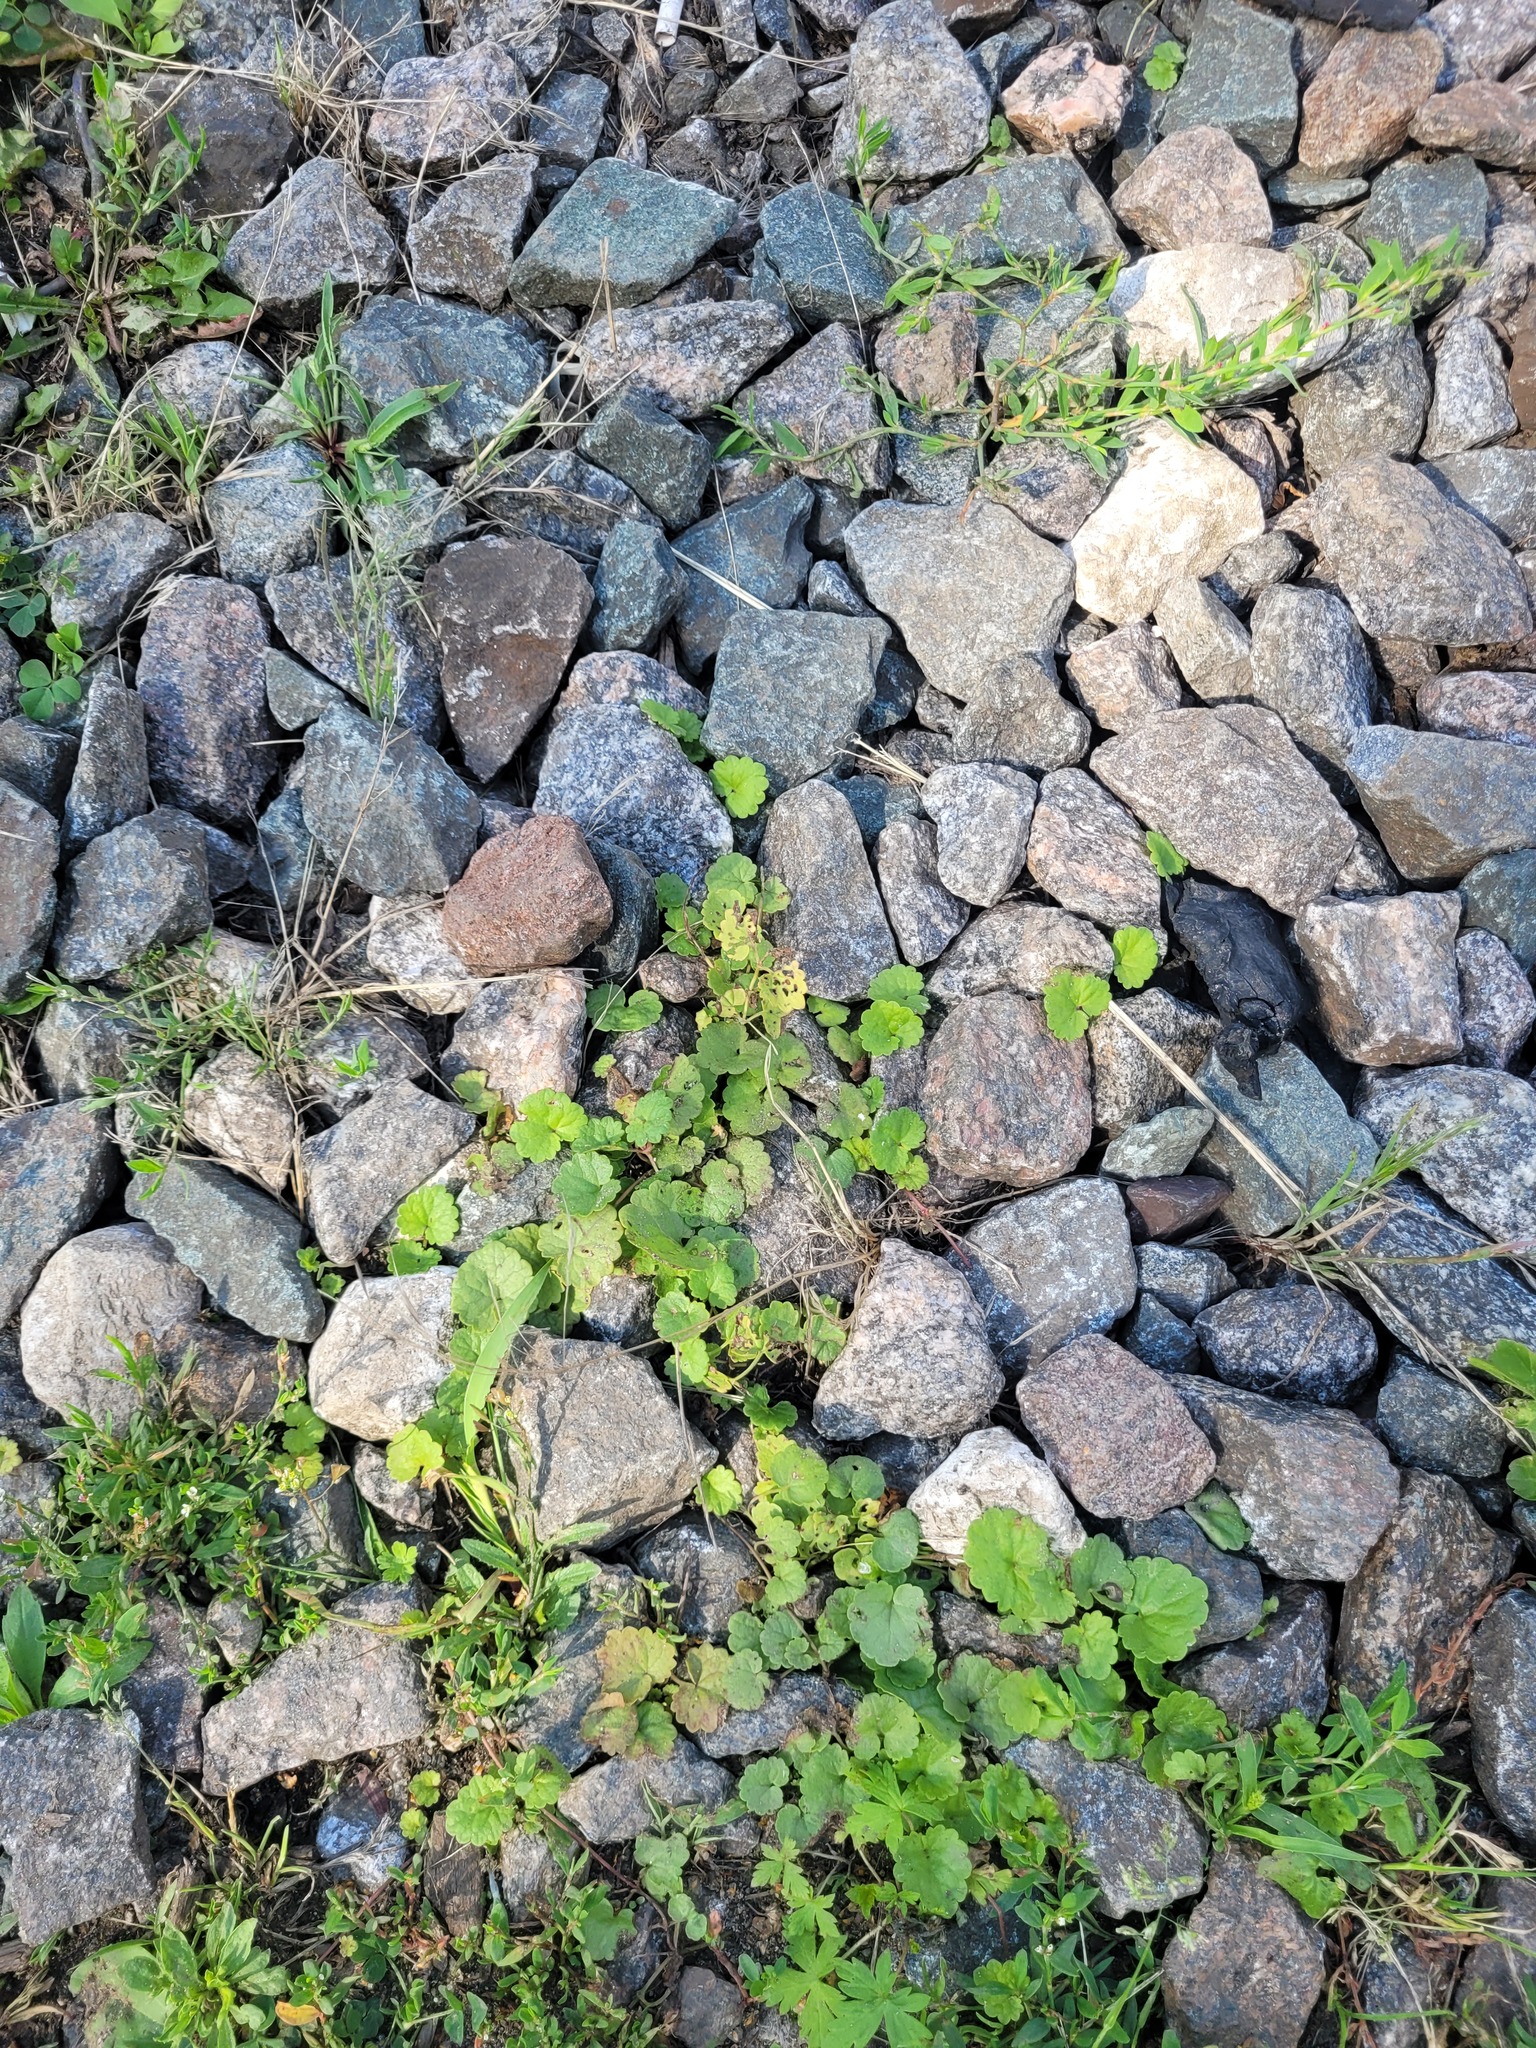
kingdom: Plantae
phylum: Tracheophyta
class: Magnoliopsida
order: Lamiales
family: Lamiaceae
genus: Glechoma
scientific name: Glechoma hederacea
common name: Ground ivy
